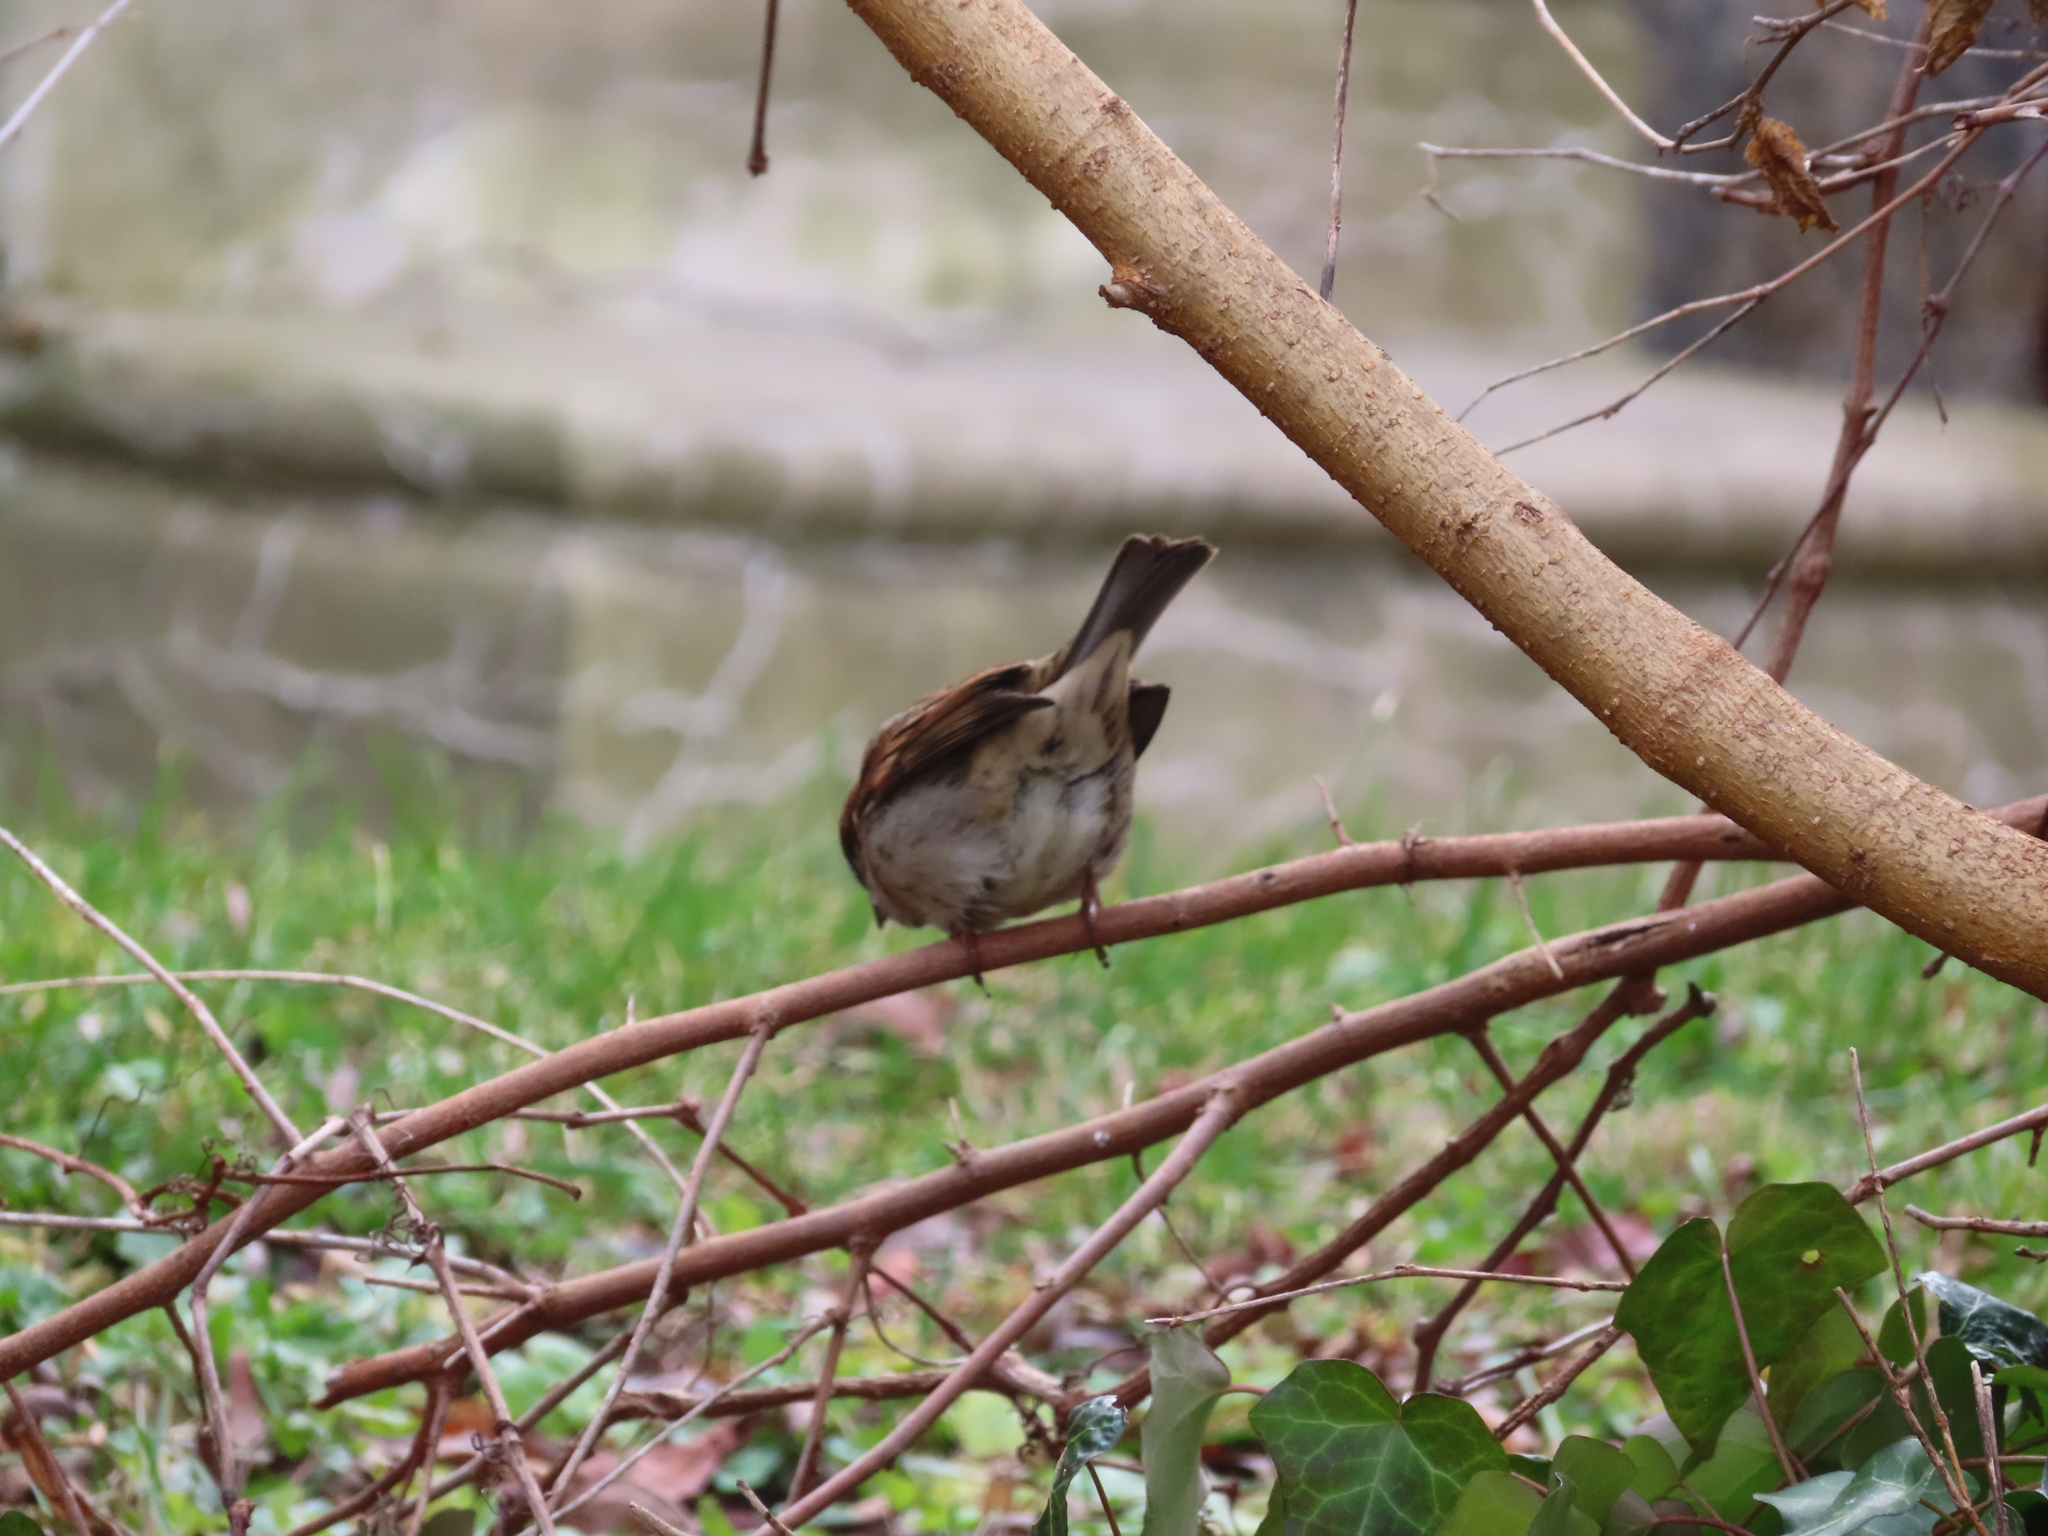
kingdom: Animalia
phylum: Chordata
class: Aves
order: Passeriformes
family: Passeridae
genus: Passer
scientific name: Passer domesticus
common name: House sparrow
